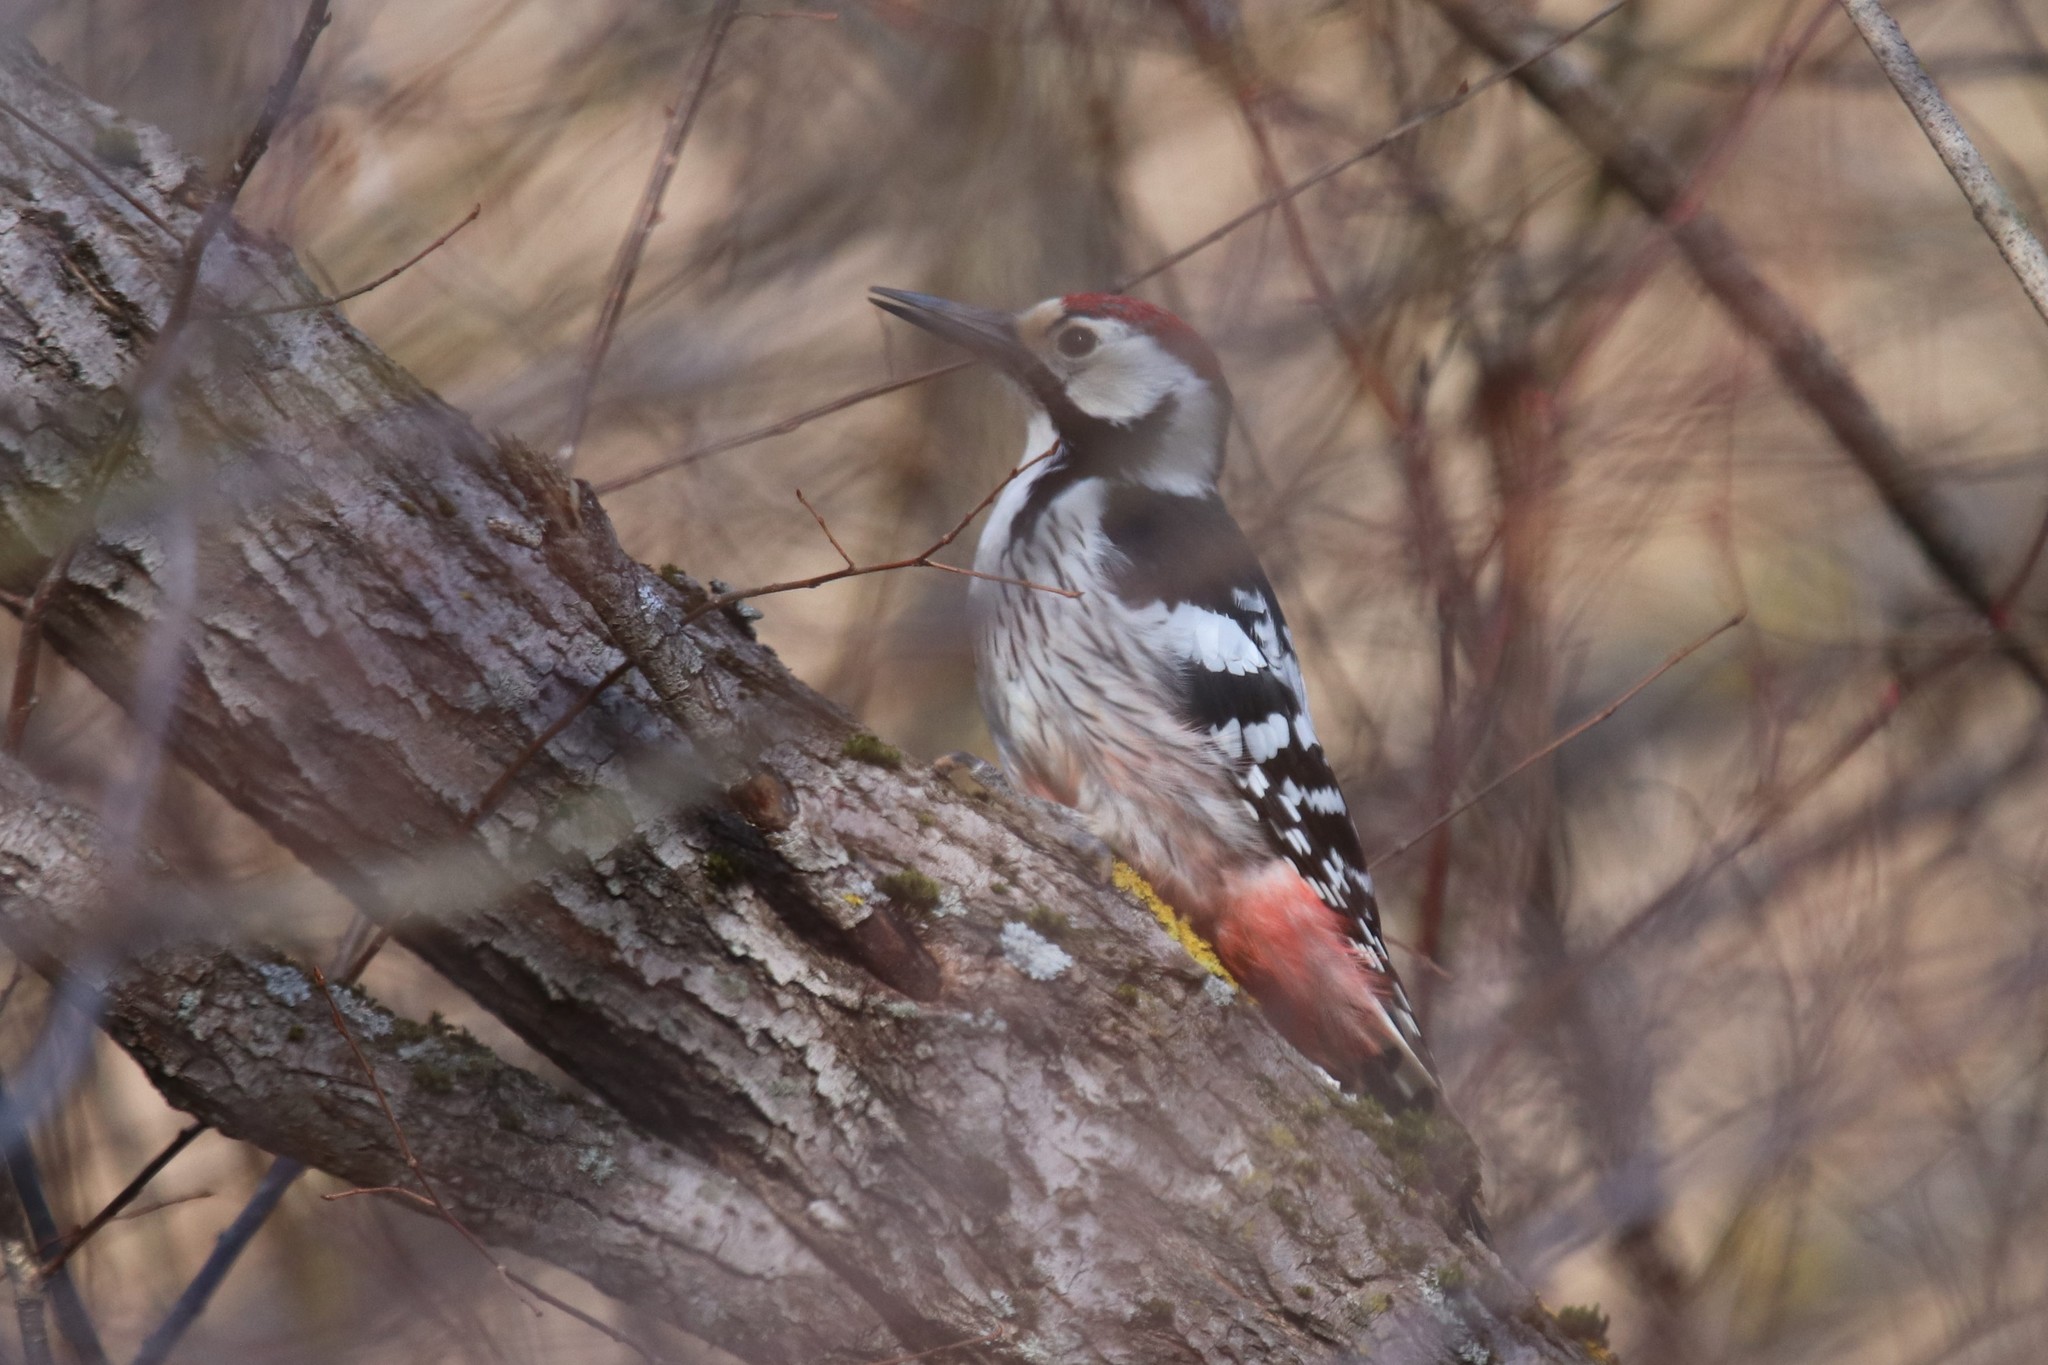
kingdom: Animalia
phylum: Chordata
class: Aves
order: Piciformes
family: Picidae
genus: Dendrocopos
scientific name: Dendrocopos leucotos
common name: White-backed woodpecker
